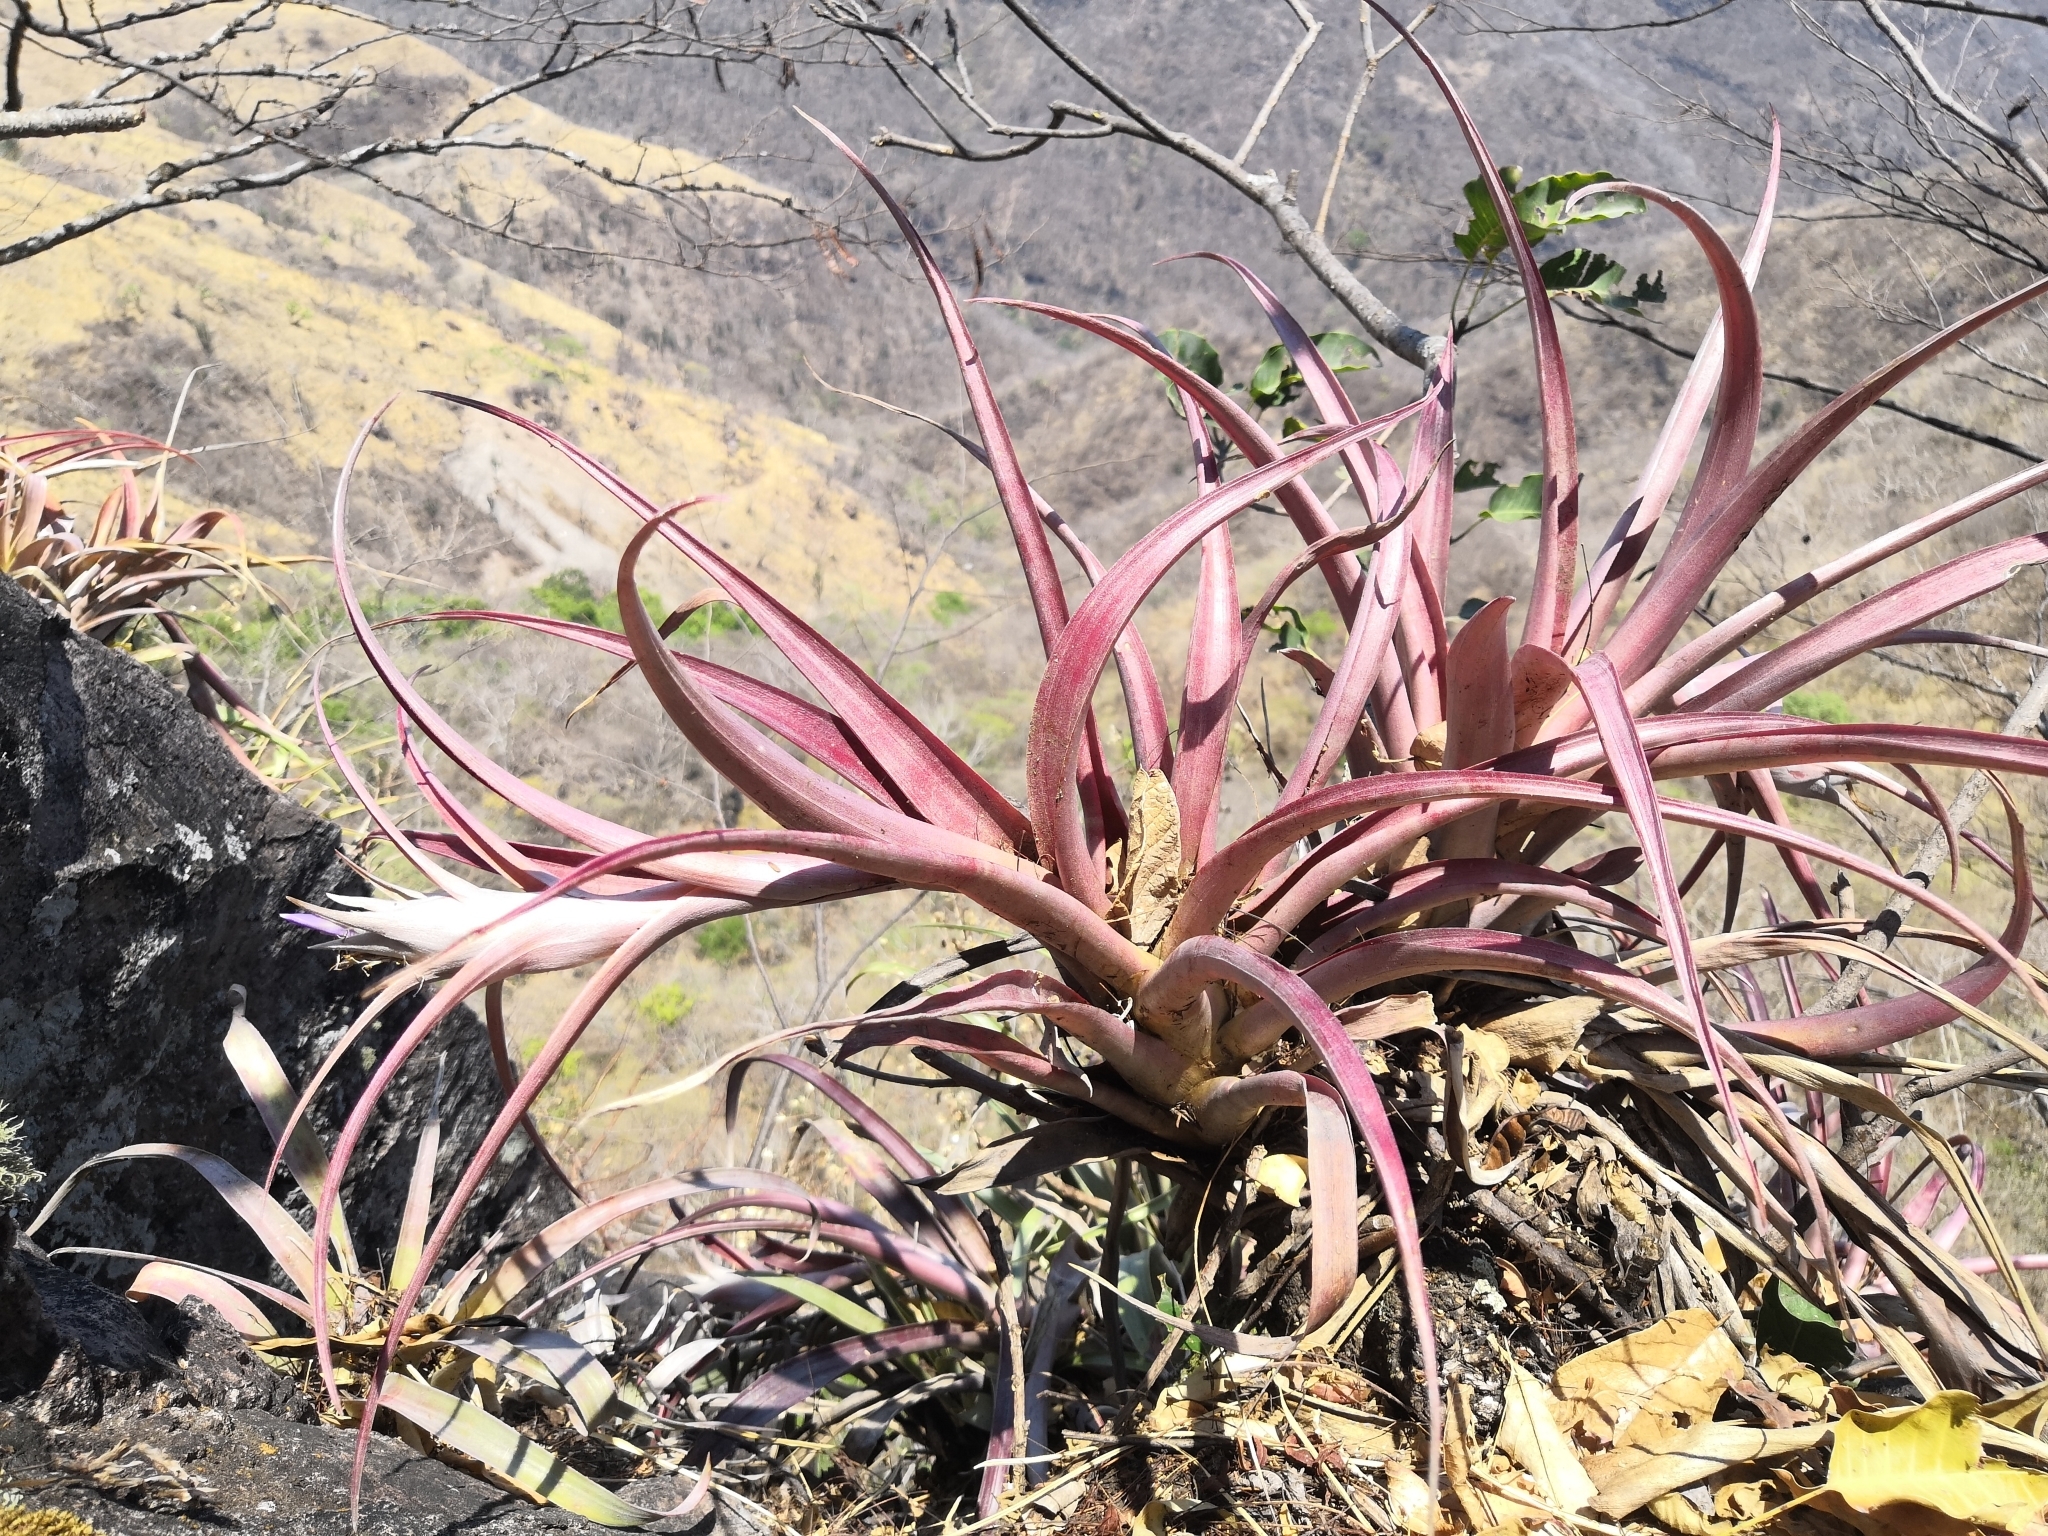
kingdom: Plantae
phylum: Tracheophyta
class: Liliopsida
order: Poales
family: Bromeliaceae
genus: Tillandsia
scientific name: Tillandsia capitata
